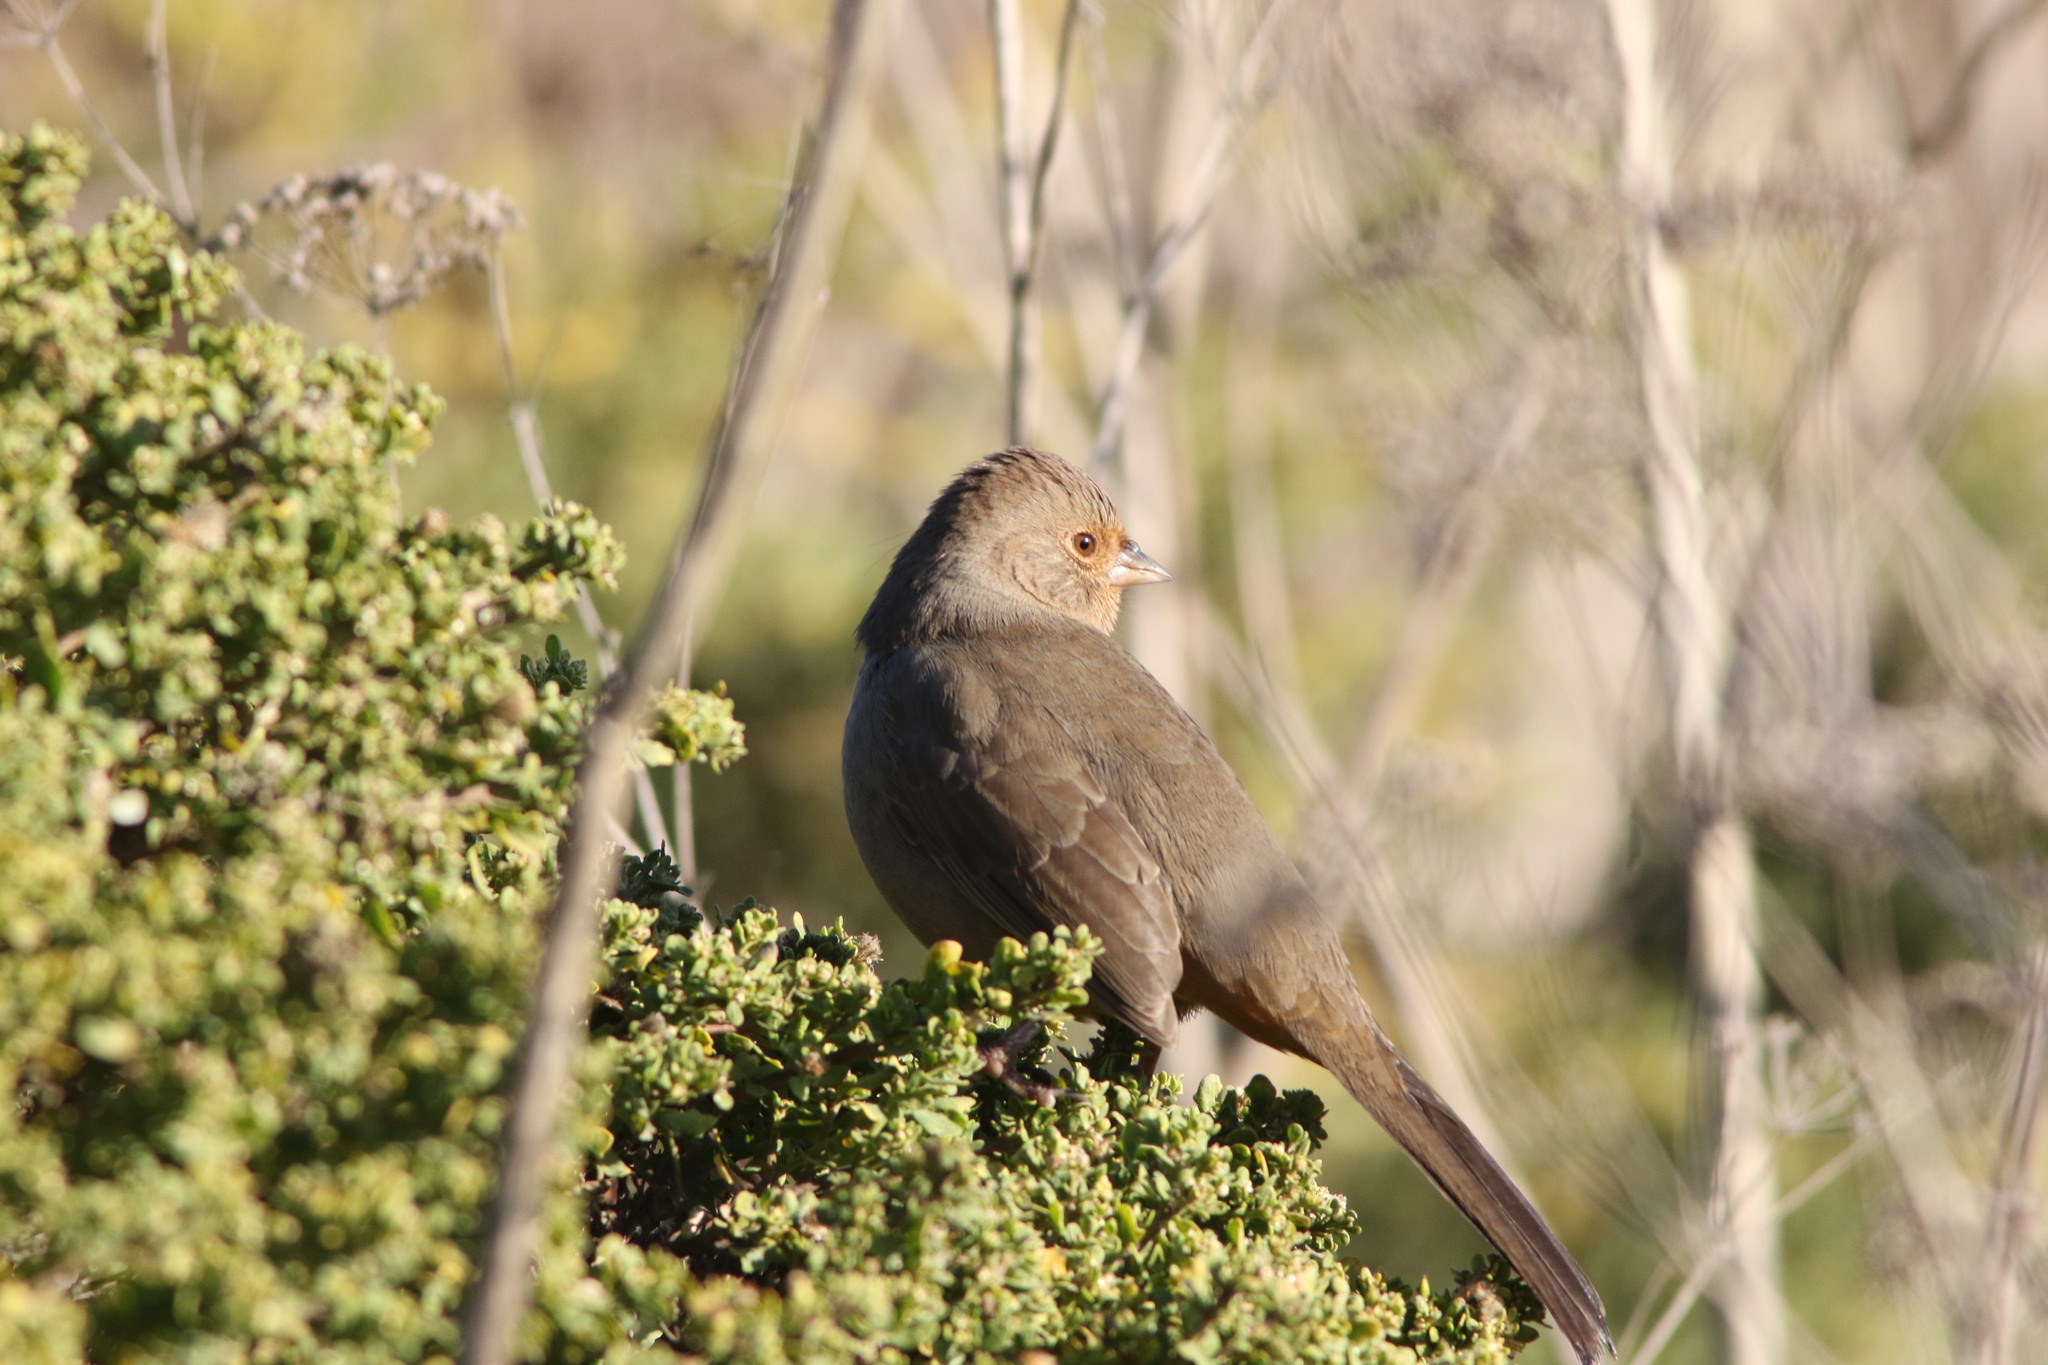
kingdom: Animalia
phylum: Chordata
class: Aves
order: Passeriformes
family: Passerellidae
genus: Melozone
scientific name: Melozone crissalis
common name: California towhee
